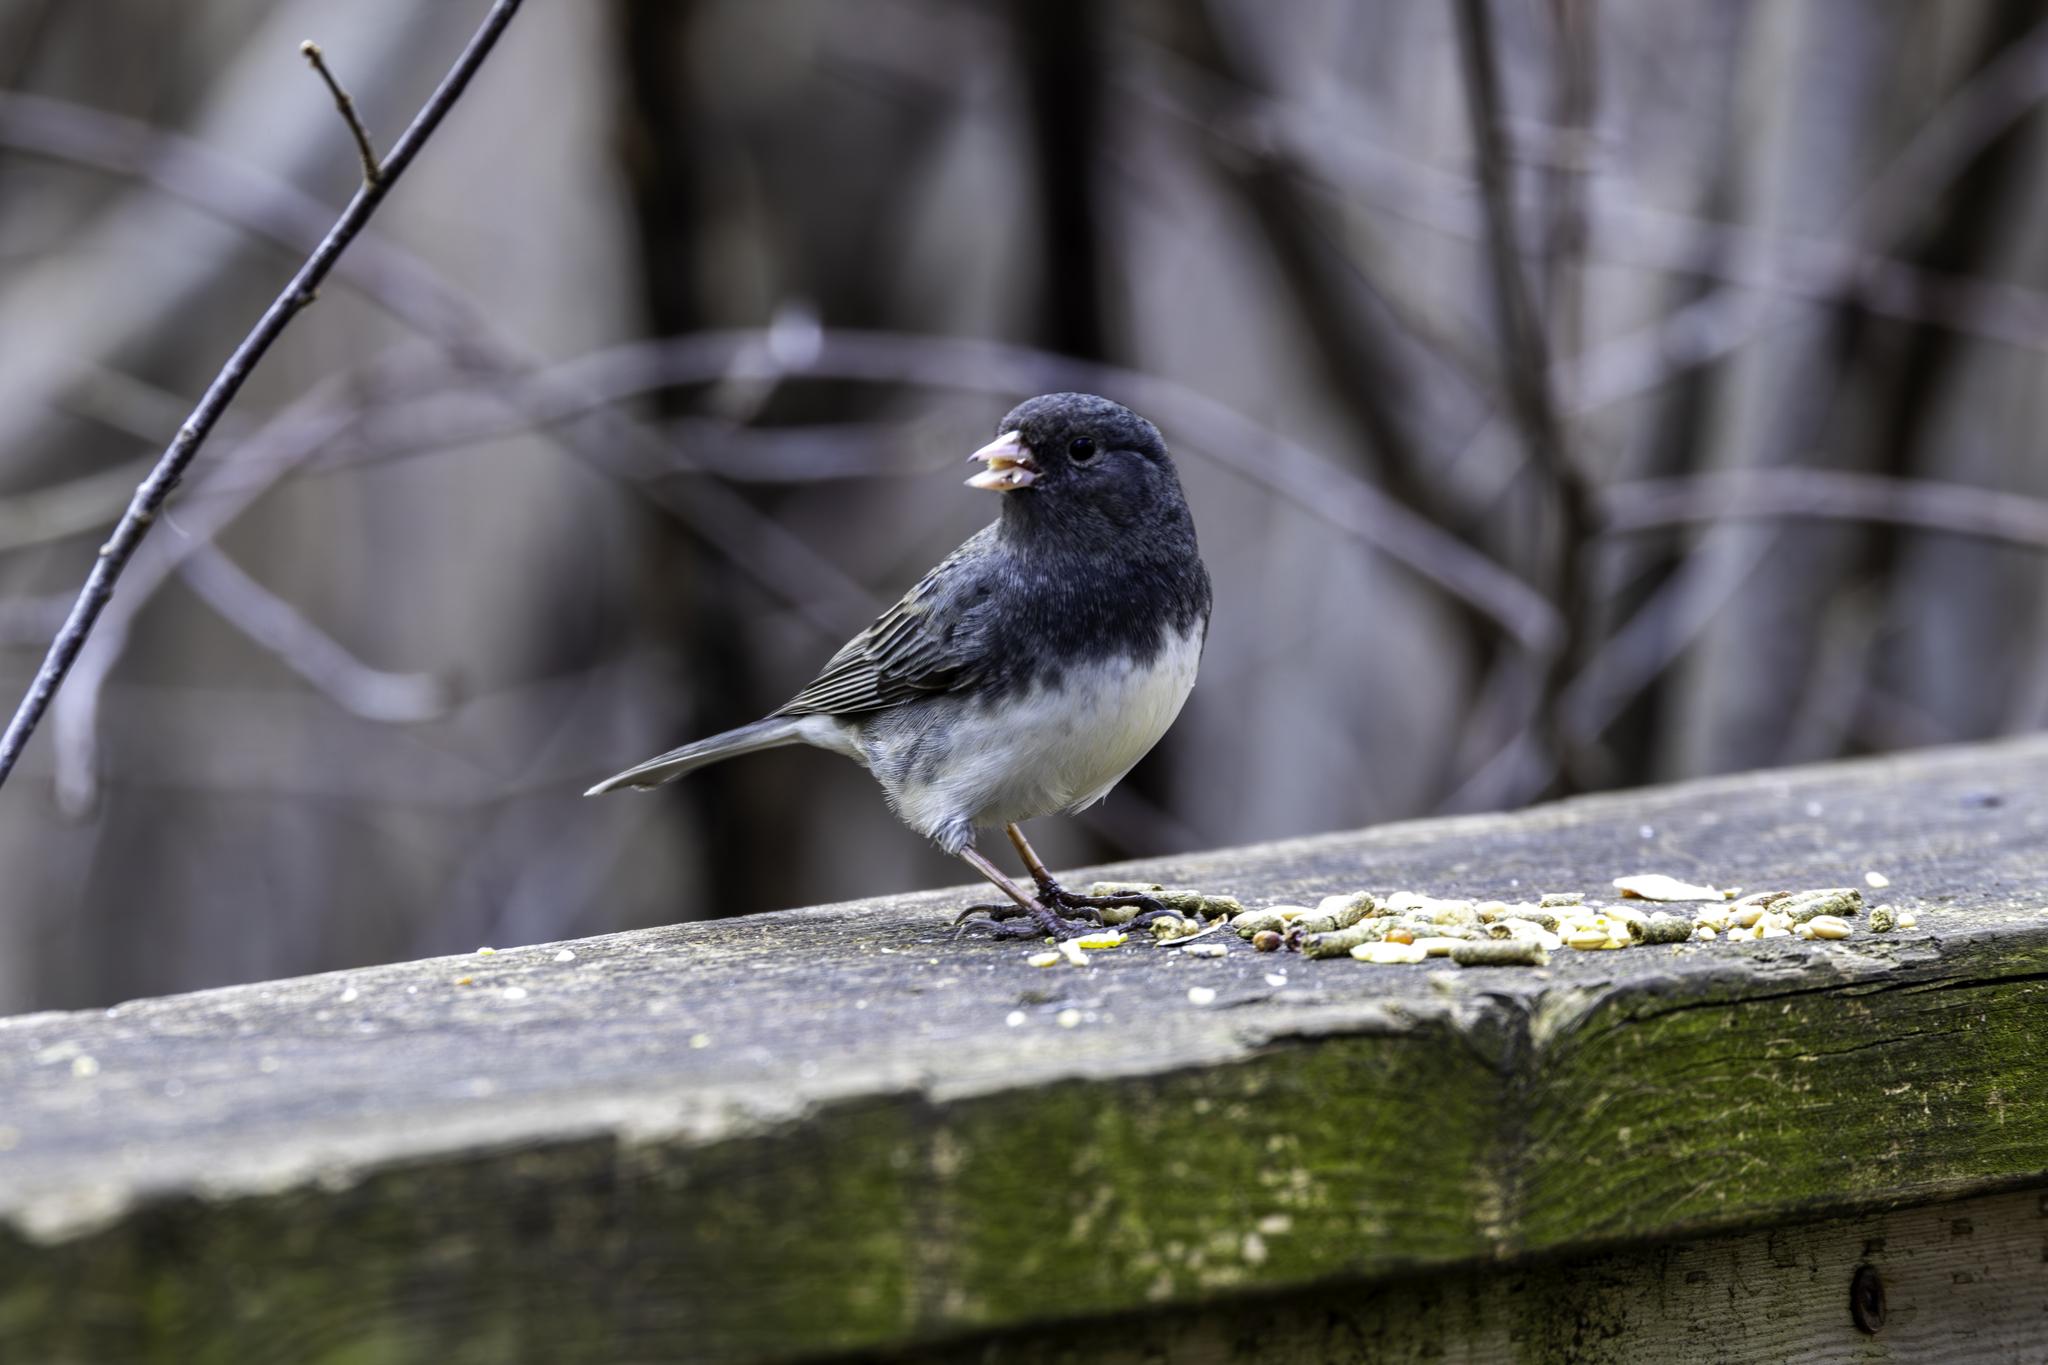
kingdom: Animalia
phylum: Chordata
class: Aves
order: Passeriformes
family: Passerellidae
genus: Junco
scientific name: Junco hyemalis
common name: Dark-eyed junco
